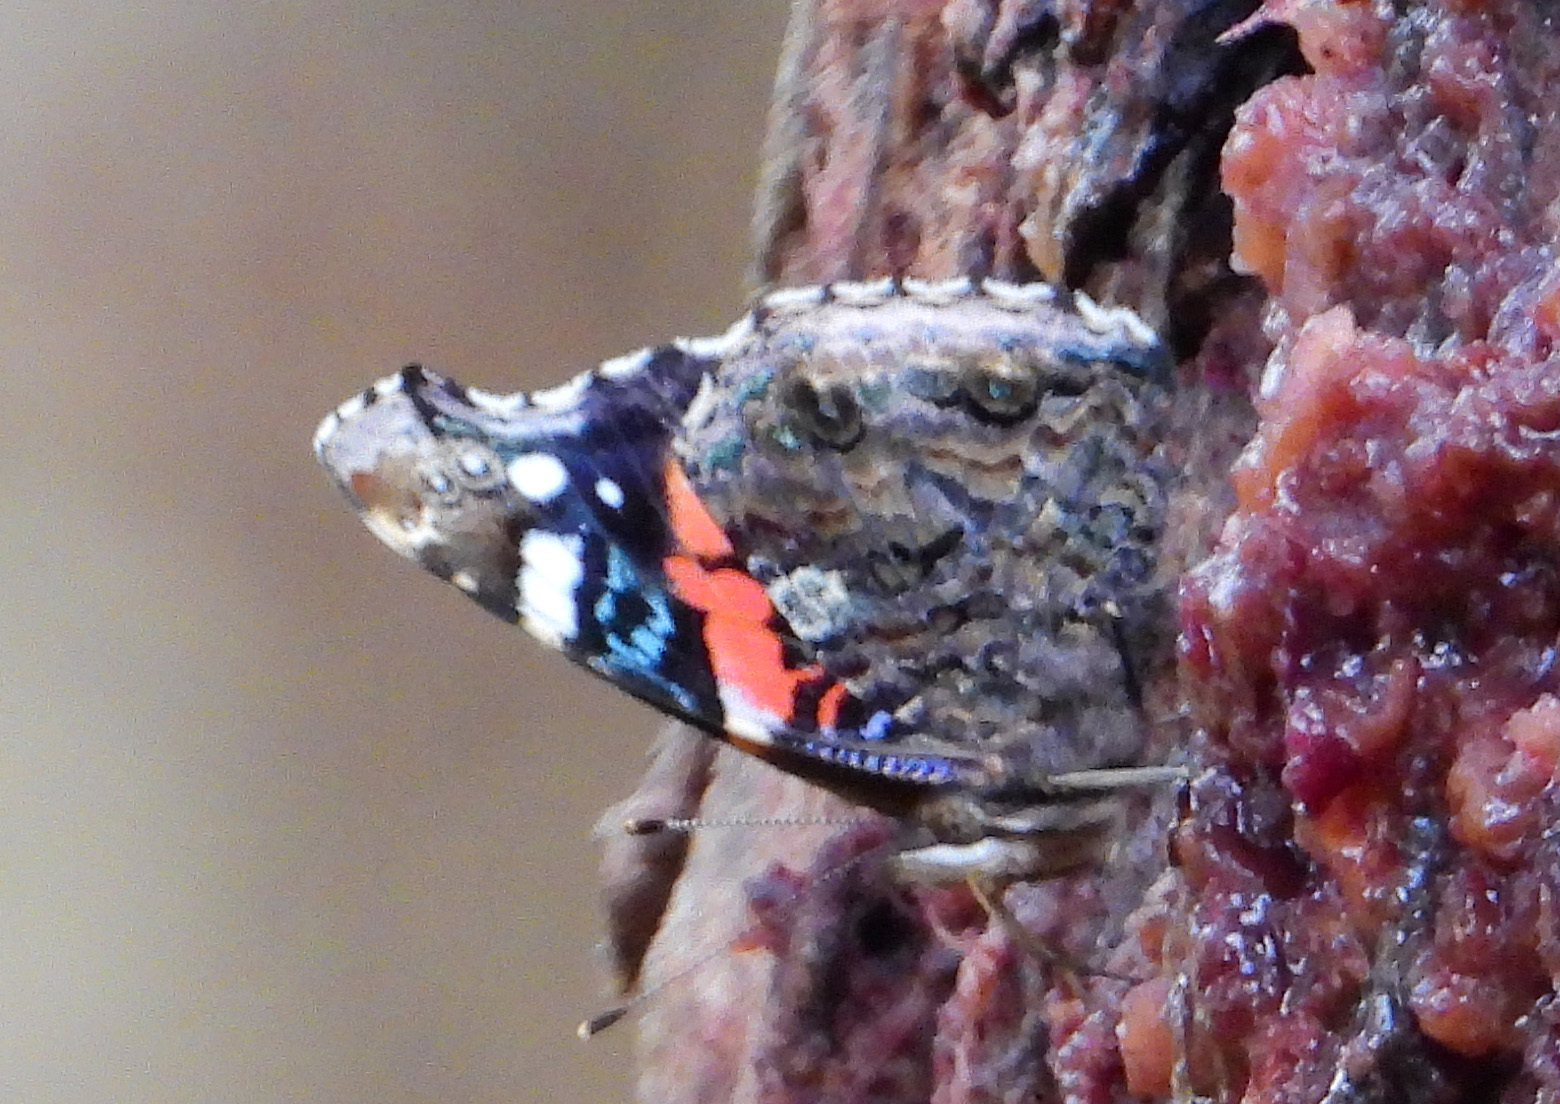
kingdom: Animalia
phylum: Arthropoda
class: Insecta
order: Lepidoptera
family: Nymphalidae
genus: Vanessa
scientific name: Vanessa atalanta
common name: Red admiral
